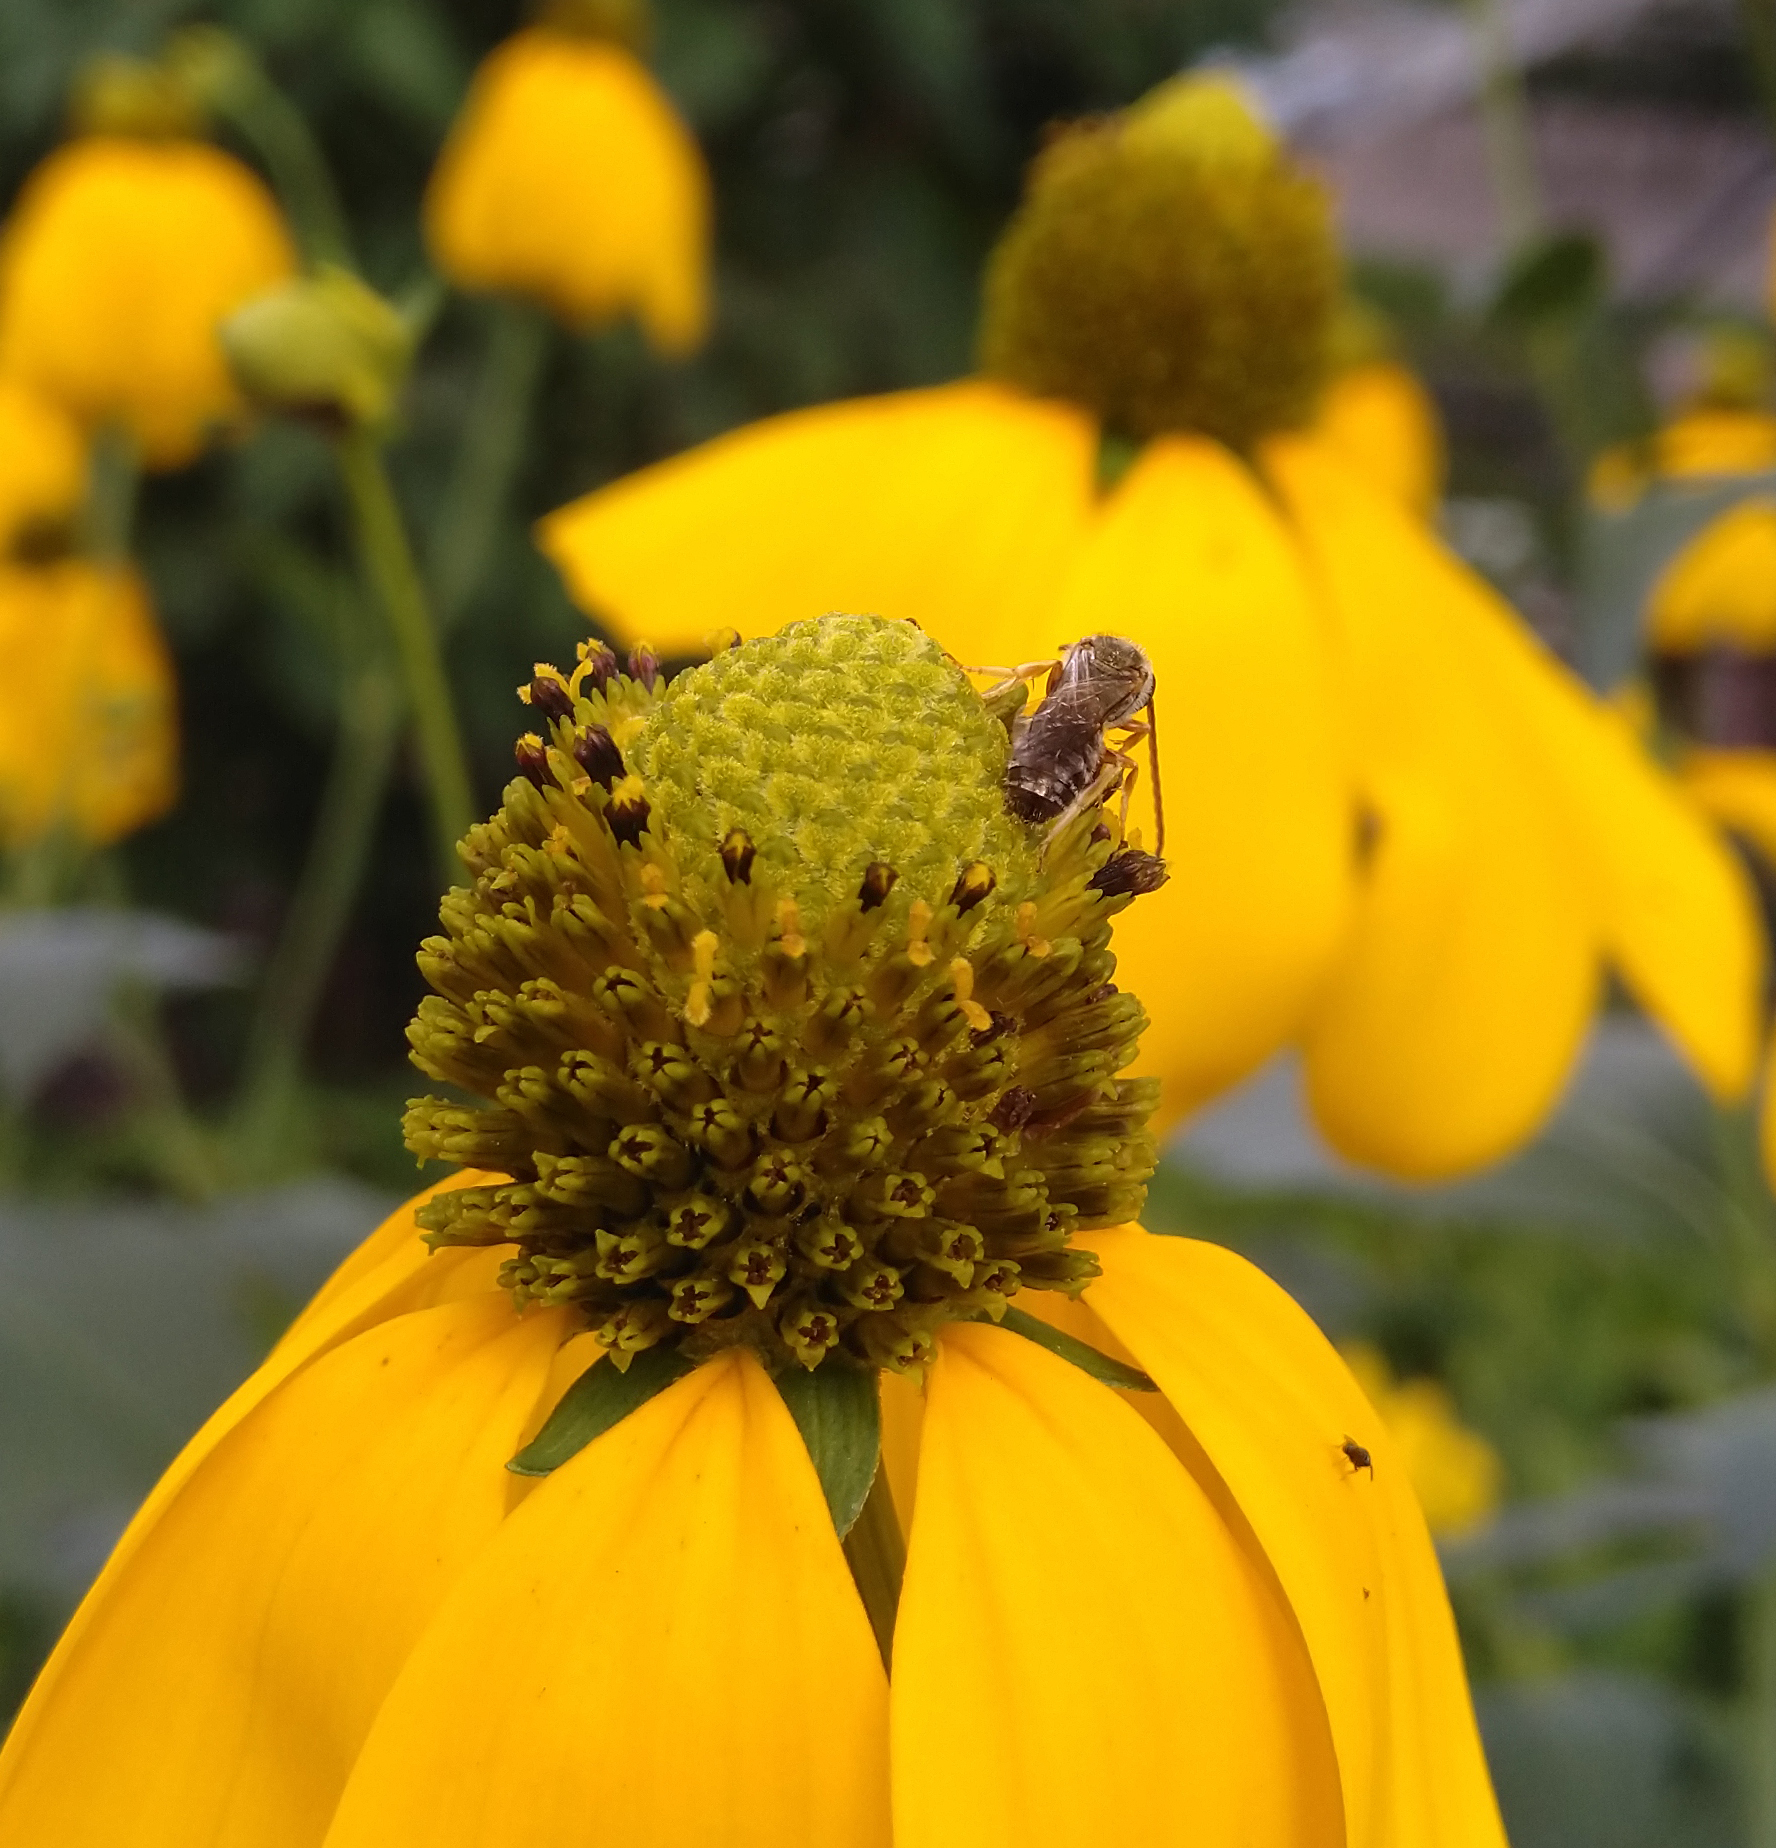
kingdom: Animalia
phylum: Arthropoda
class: Insecta
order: Hymenoptera
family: Halictidae
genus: Halictus
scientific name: Halictus confusus
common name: Southern bronze furrow bee
